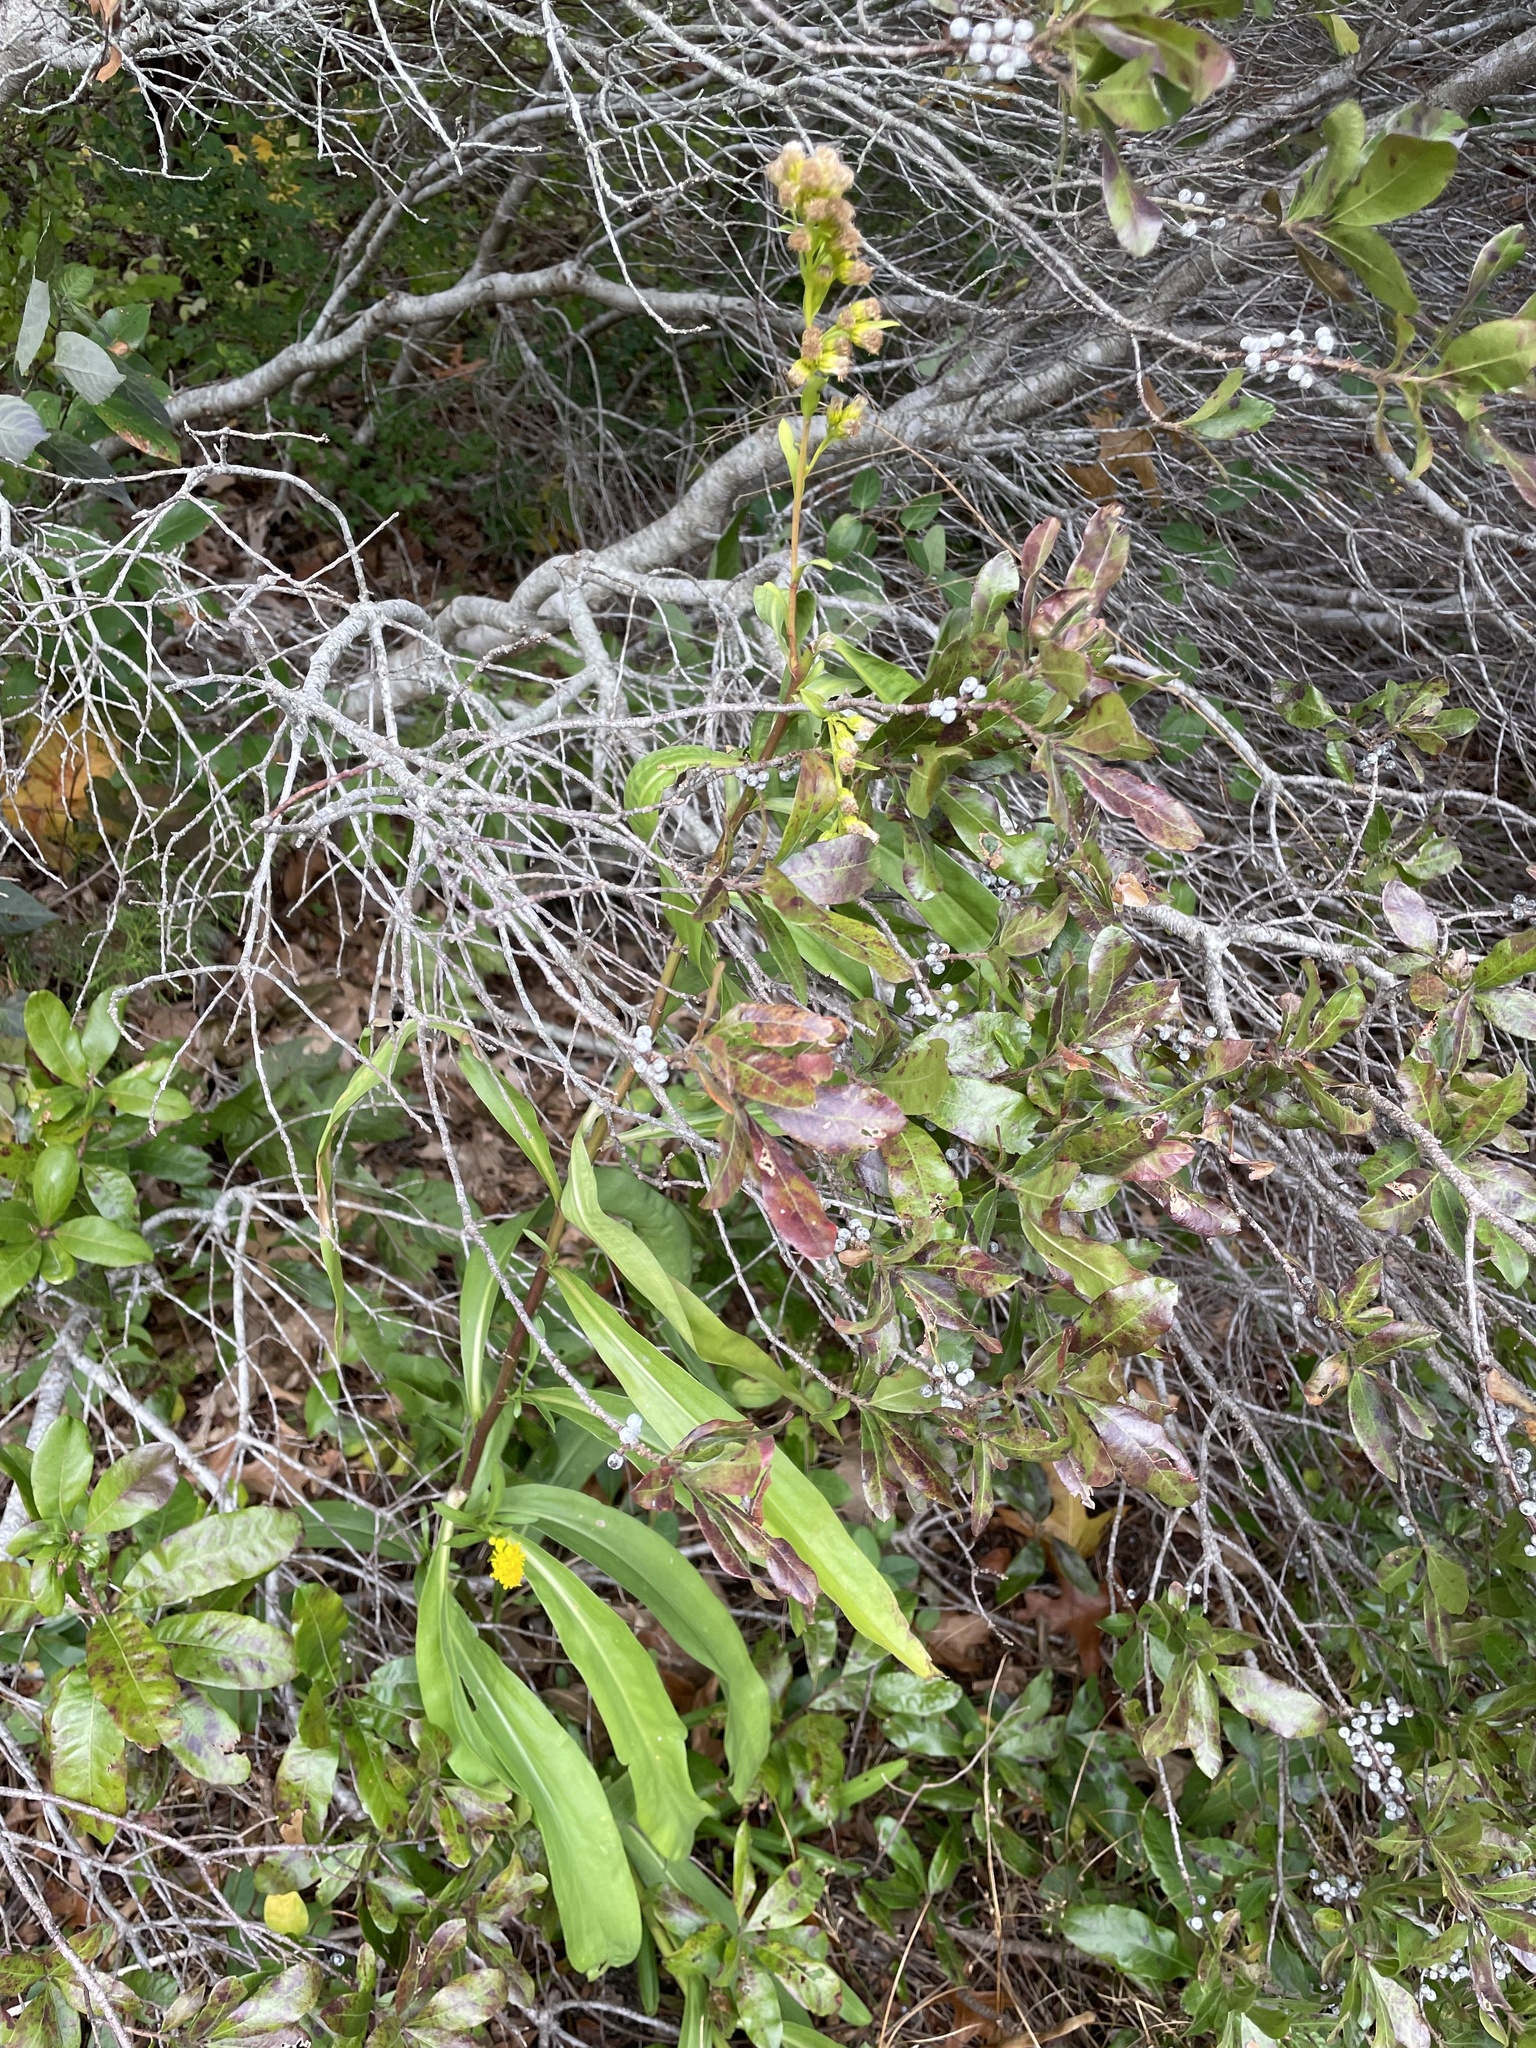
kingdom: Plantae
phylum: Tracheophyta
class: Magnoliopsida
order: Asterales
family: Asteraceae
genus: Solidago
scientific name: Solidago sempervirens
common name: Salt-marsh goldenrod
